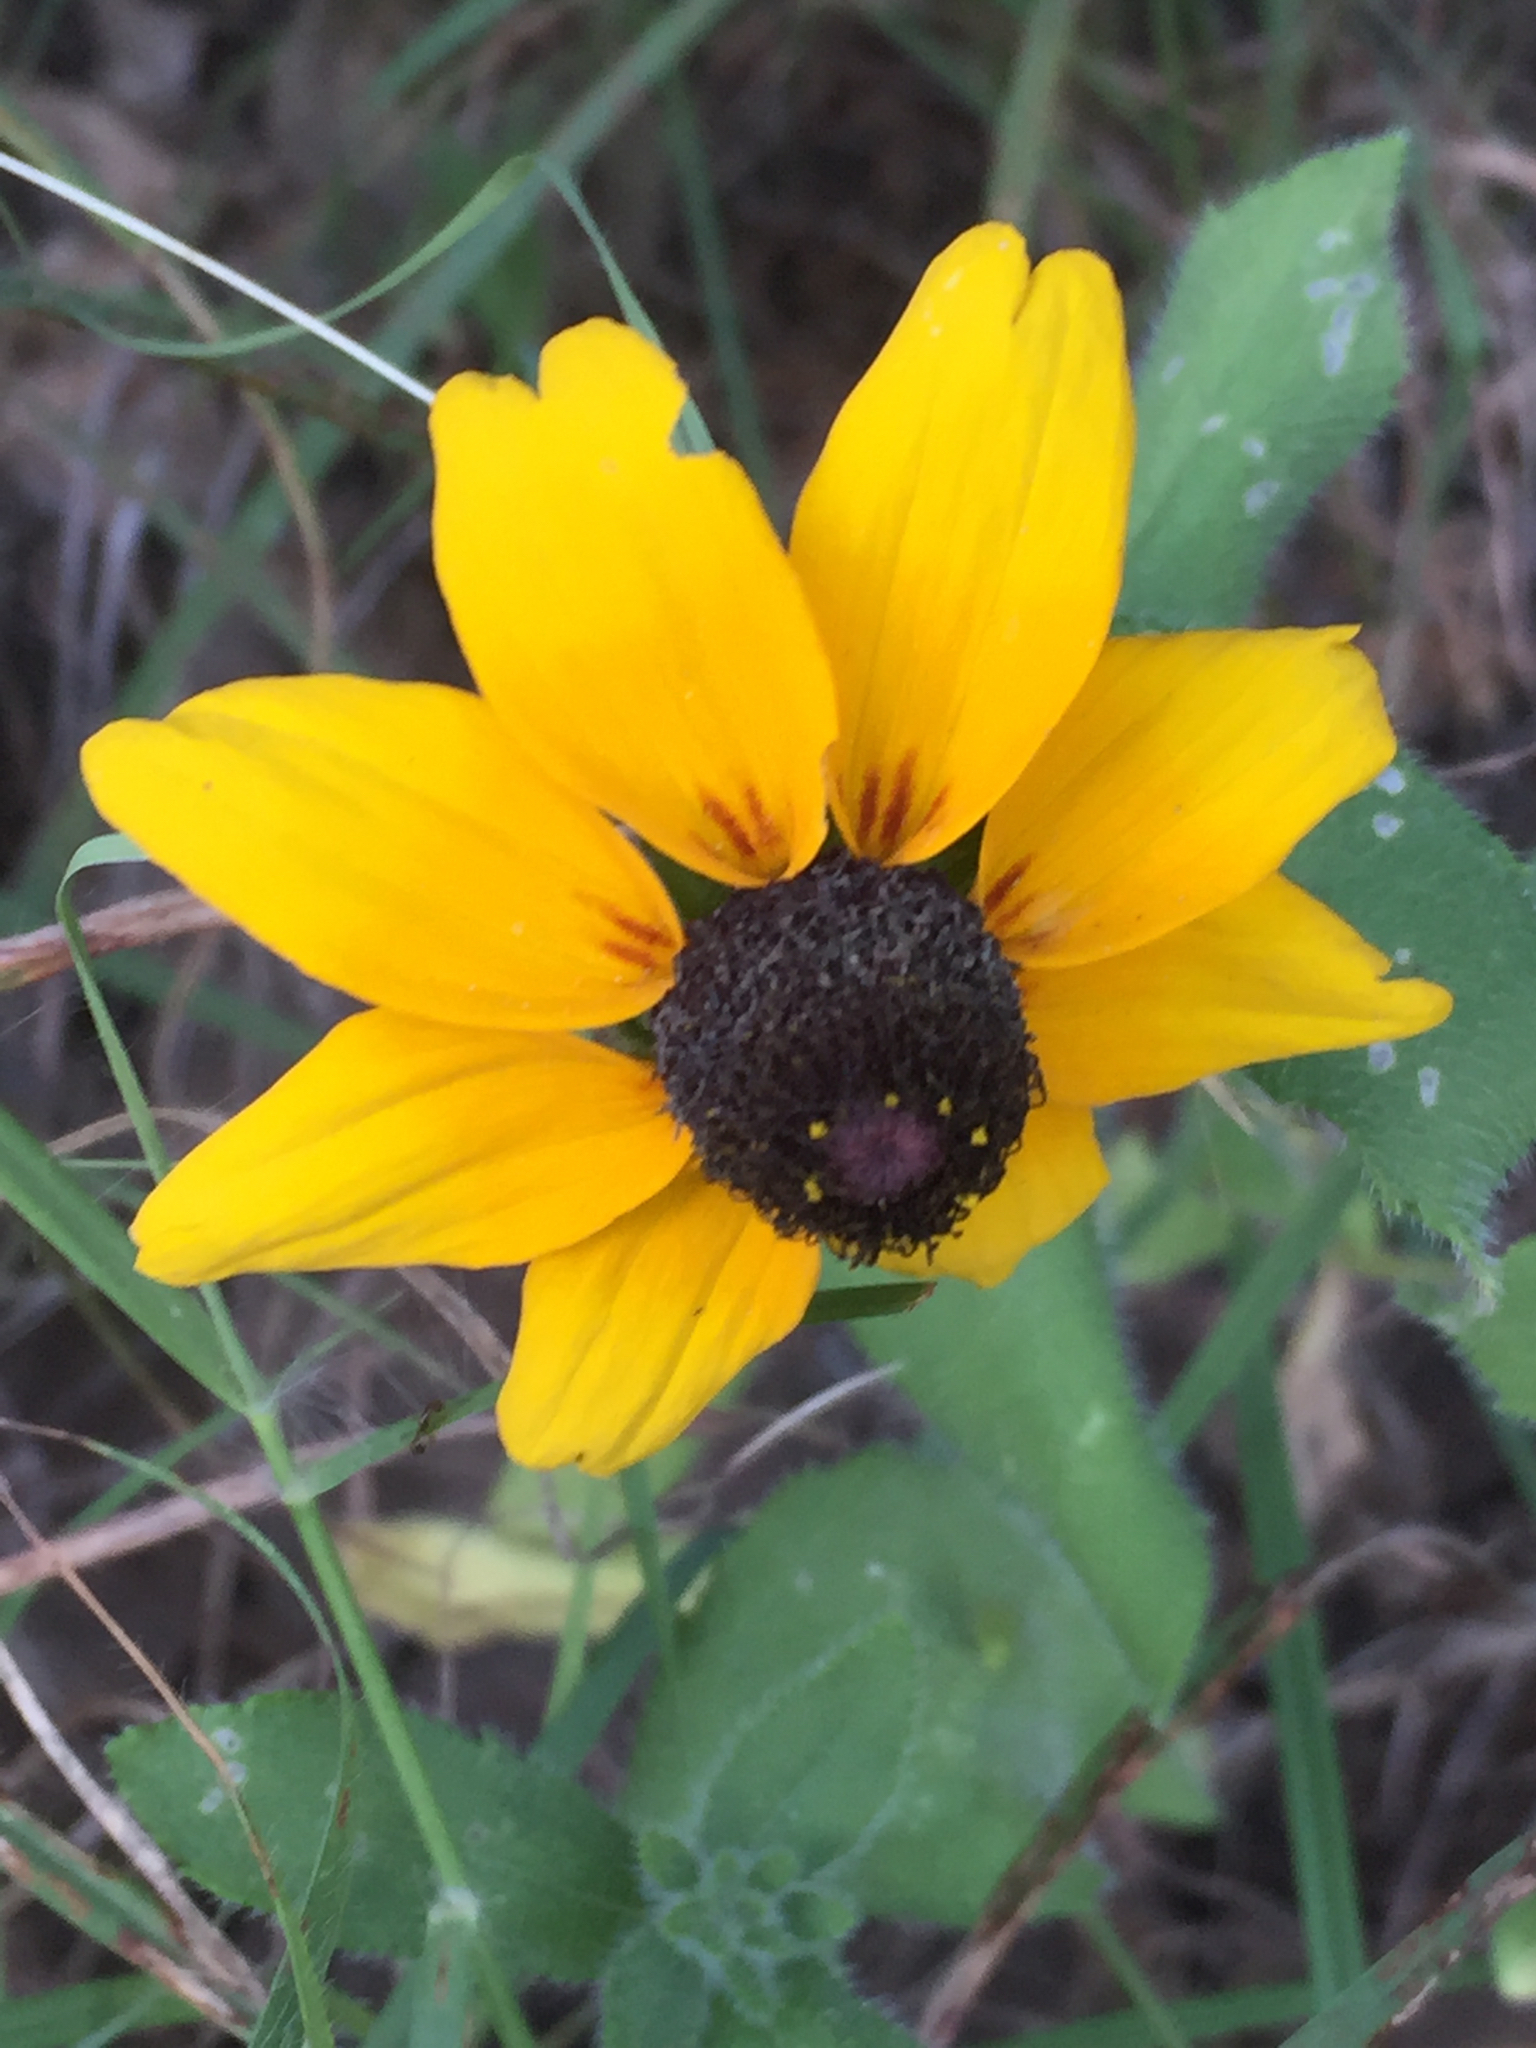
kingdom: Plantae
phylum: Tracheophyta
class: Magnoliopsida
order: Asterales
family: Asteraceae
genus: Rudbeckia
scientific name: Rudbeckia hirta
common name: Black-eyed-susan
